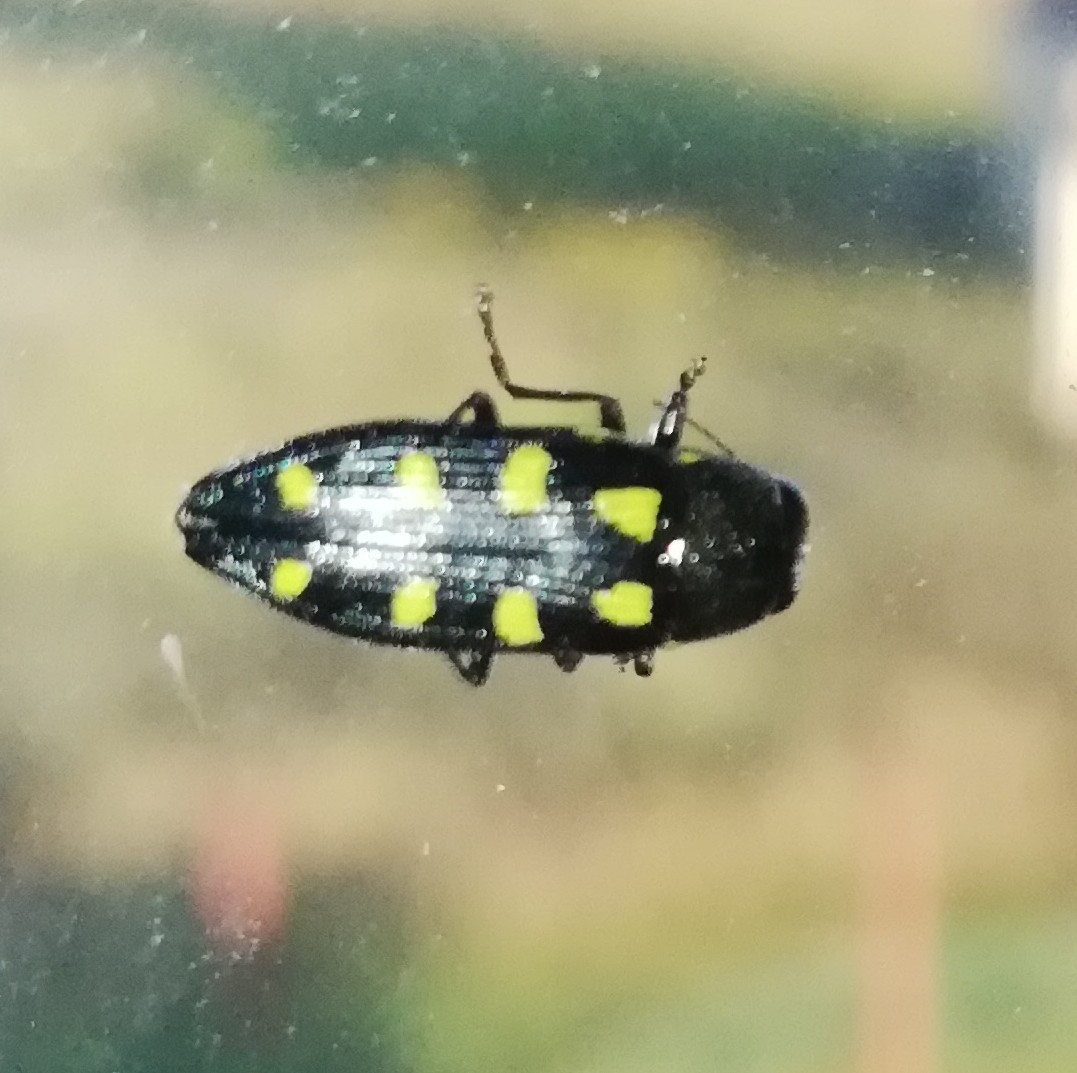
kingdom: Animalia
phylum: Arthropoda
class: Insecta
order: Coleoptera
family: Buprestidae
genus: Buprestis
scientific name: Buprestis octoguttata
